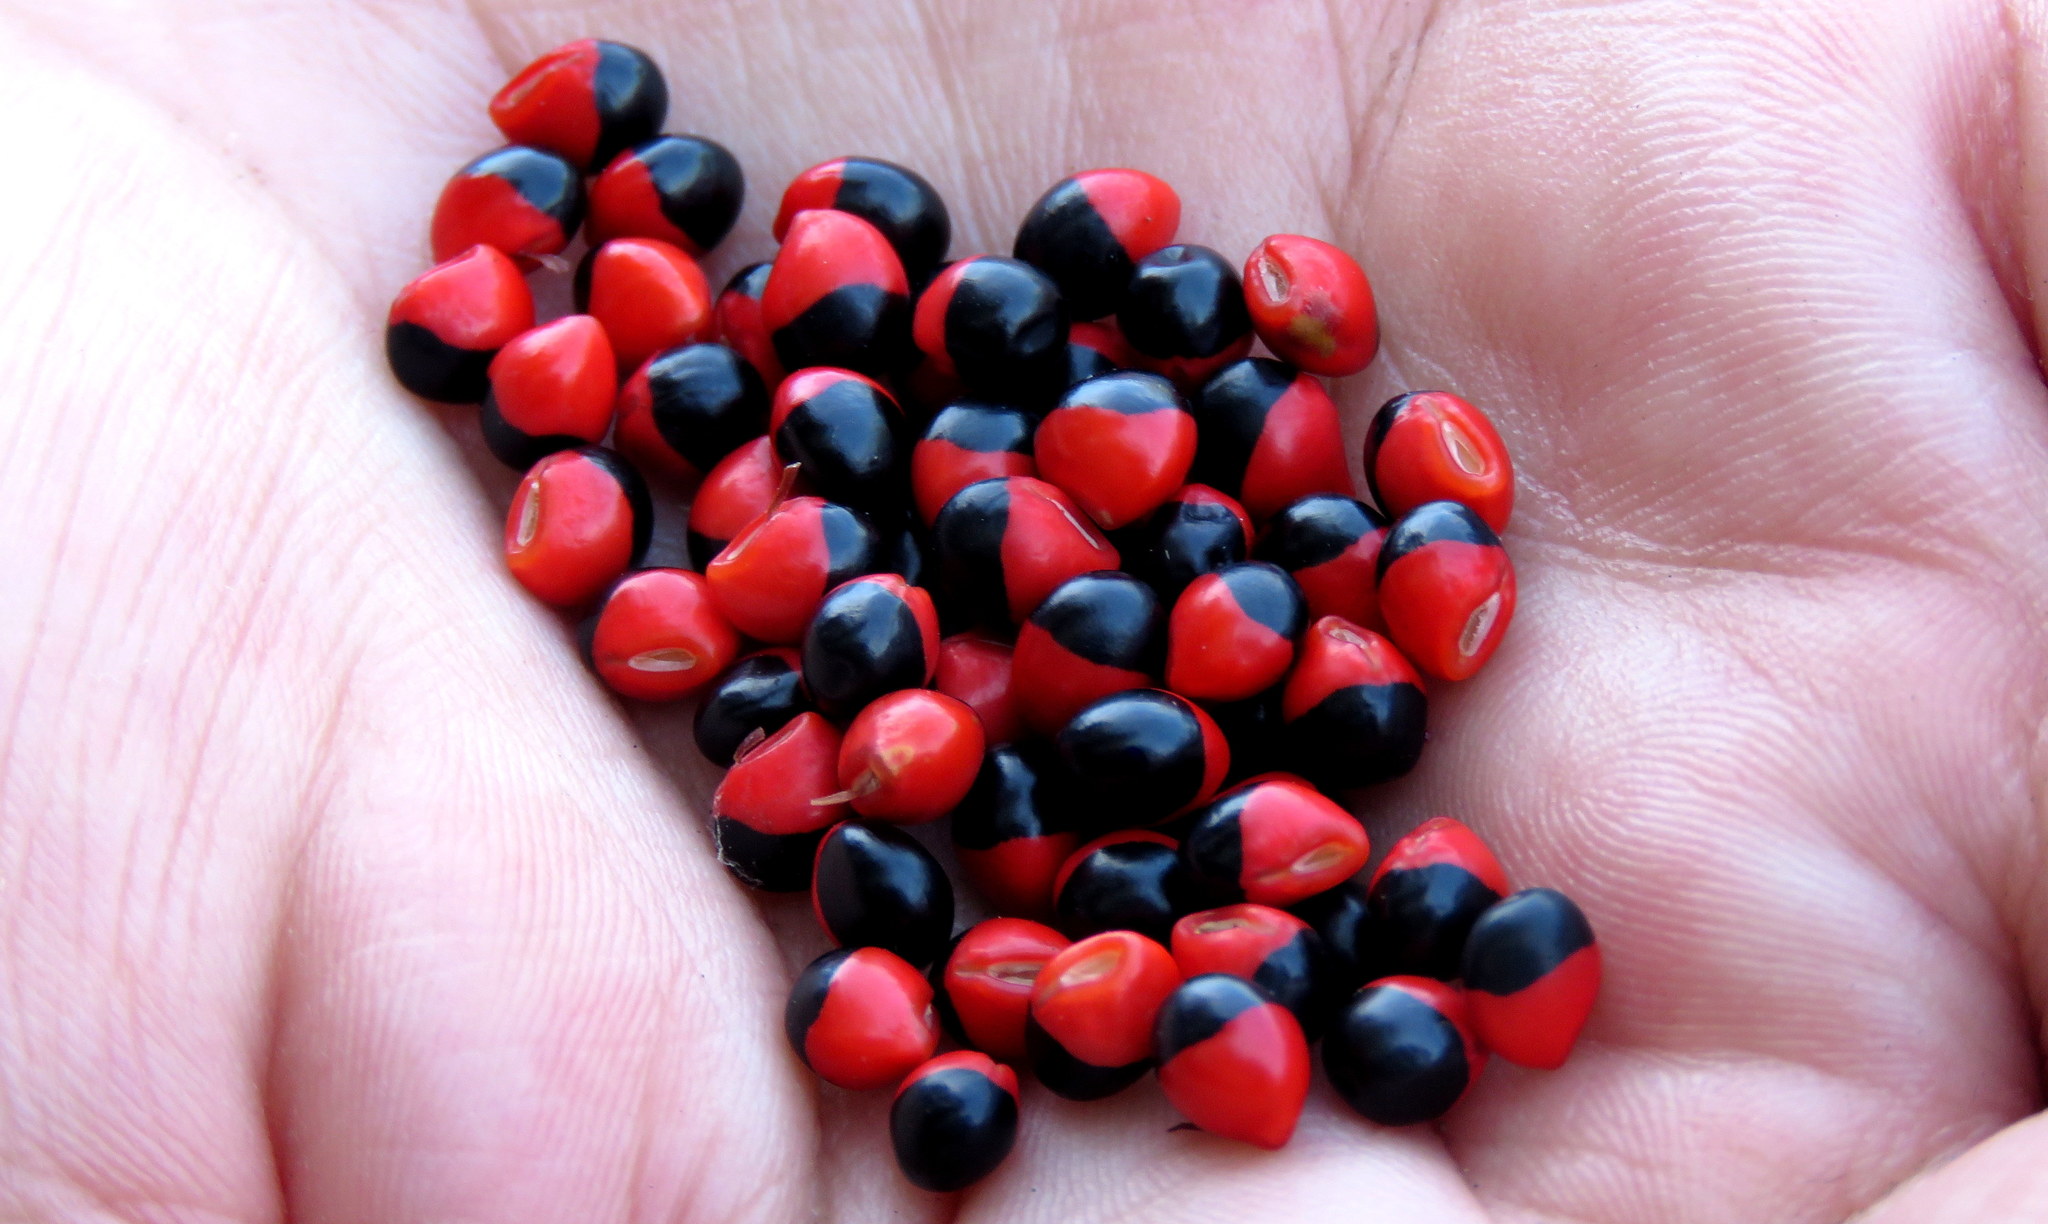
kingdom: Plantae
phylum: Tracheophyta
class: Magnoliopsida
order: Fabales
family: Fabaceae
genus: Rhynchosia
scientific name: Rhynchosia precatoria
